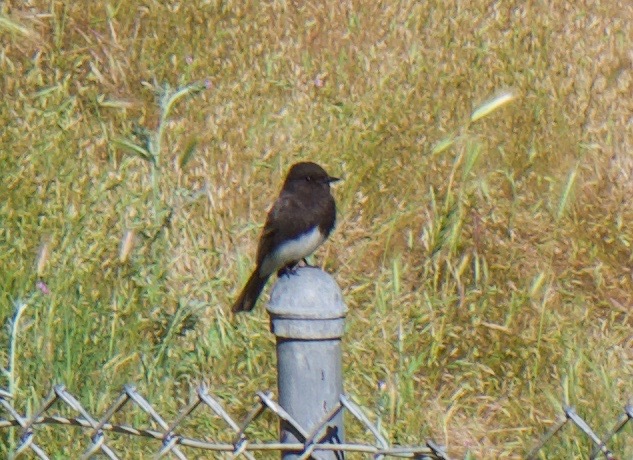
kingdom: Animalia
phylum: Chordata
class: Aves
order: Passeriformes
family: Tyrannidae
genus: Sayornis
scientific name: Sayornis nigricans
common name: Black phoebe
